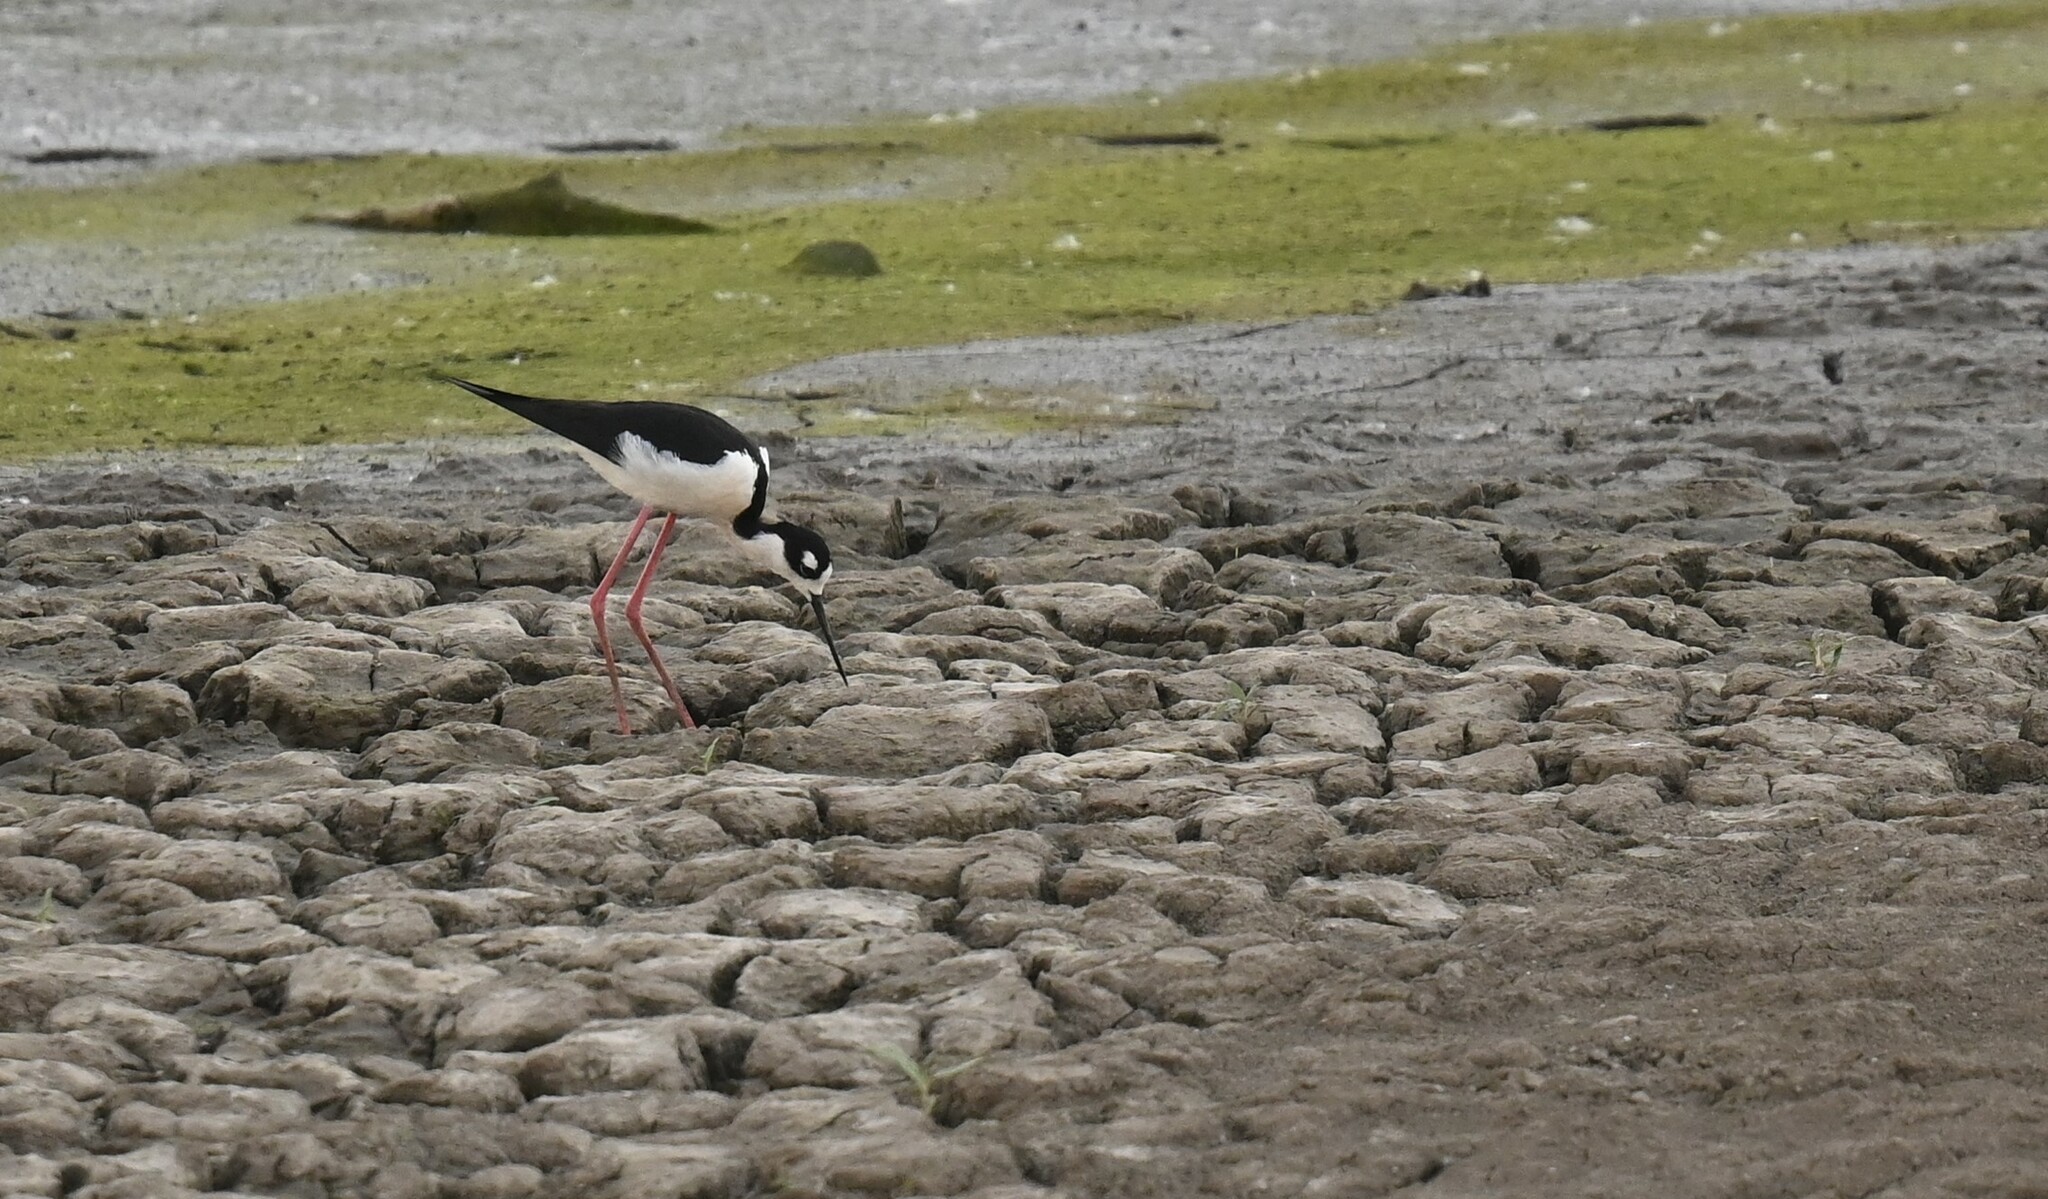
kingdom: Animalia
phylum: Chordata
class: Aves
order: Charadriiformes
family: Recurvirostridae
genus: Himantopus
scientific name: Himantopus mexicanus
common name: Black-necked stilt
